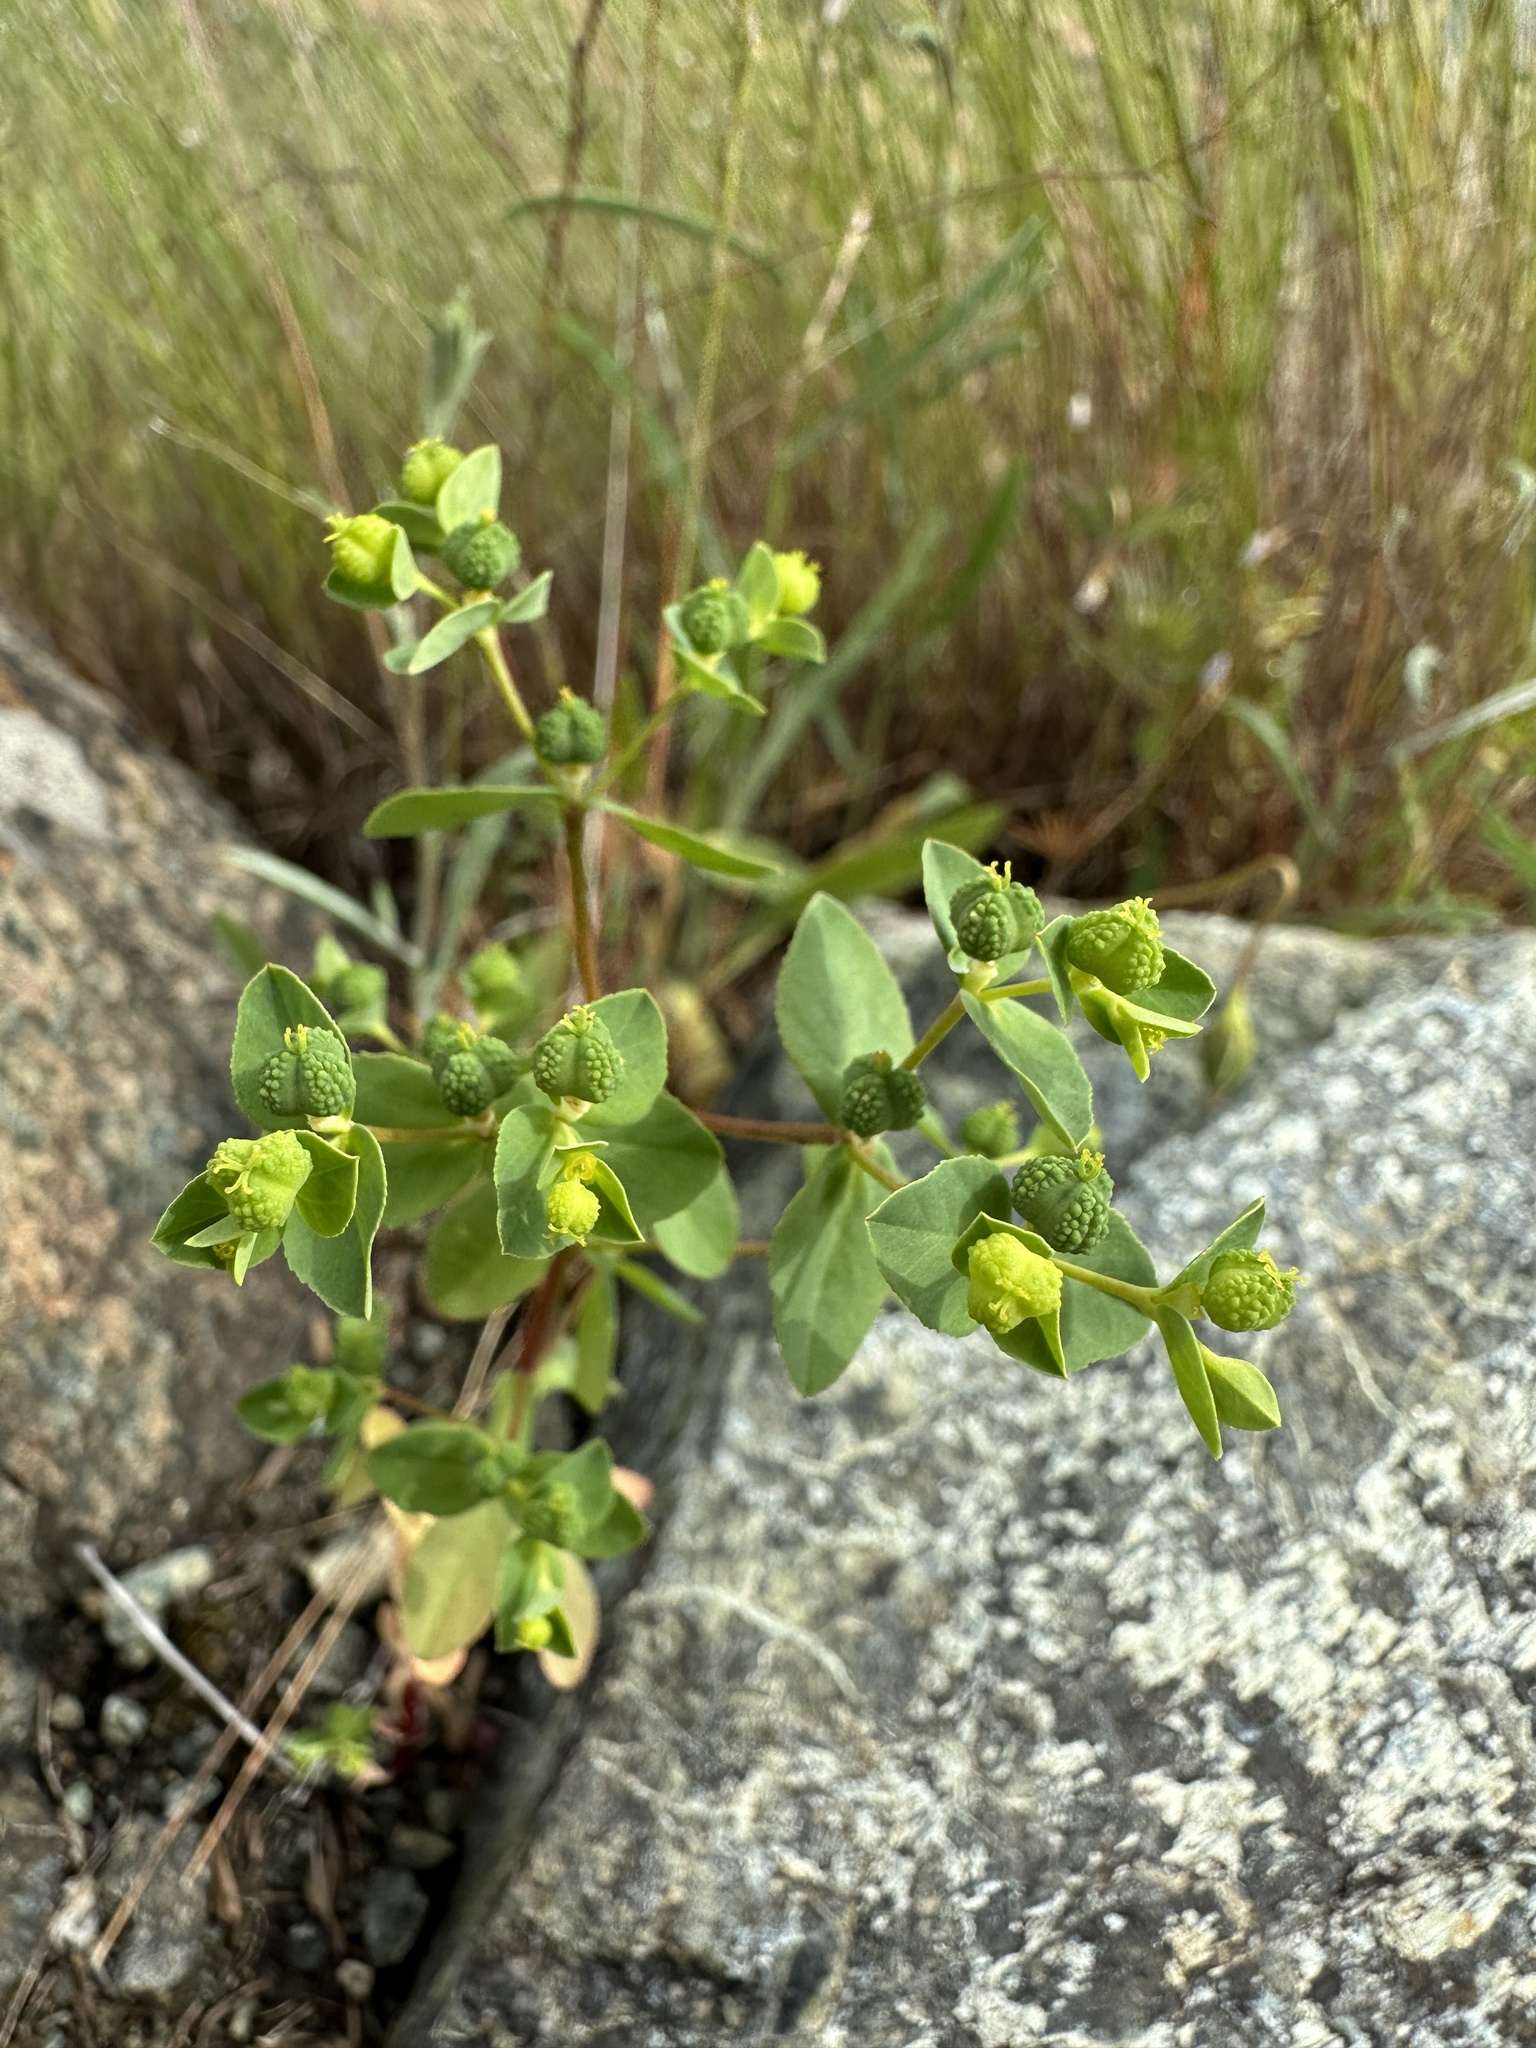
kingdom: Plantae
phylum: Tracheophyta
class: Magnoliopsida
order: Malpighiales
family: Euphorbiaceae
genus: Euphorbia
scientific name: Euphorbia spathulata
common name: Blunt spurge
